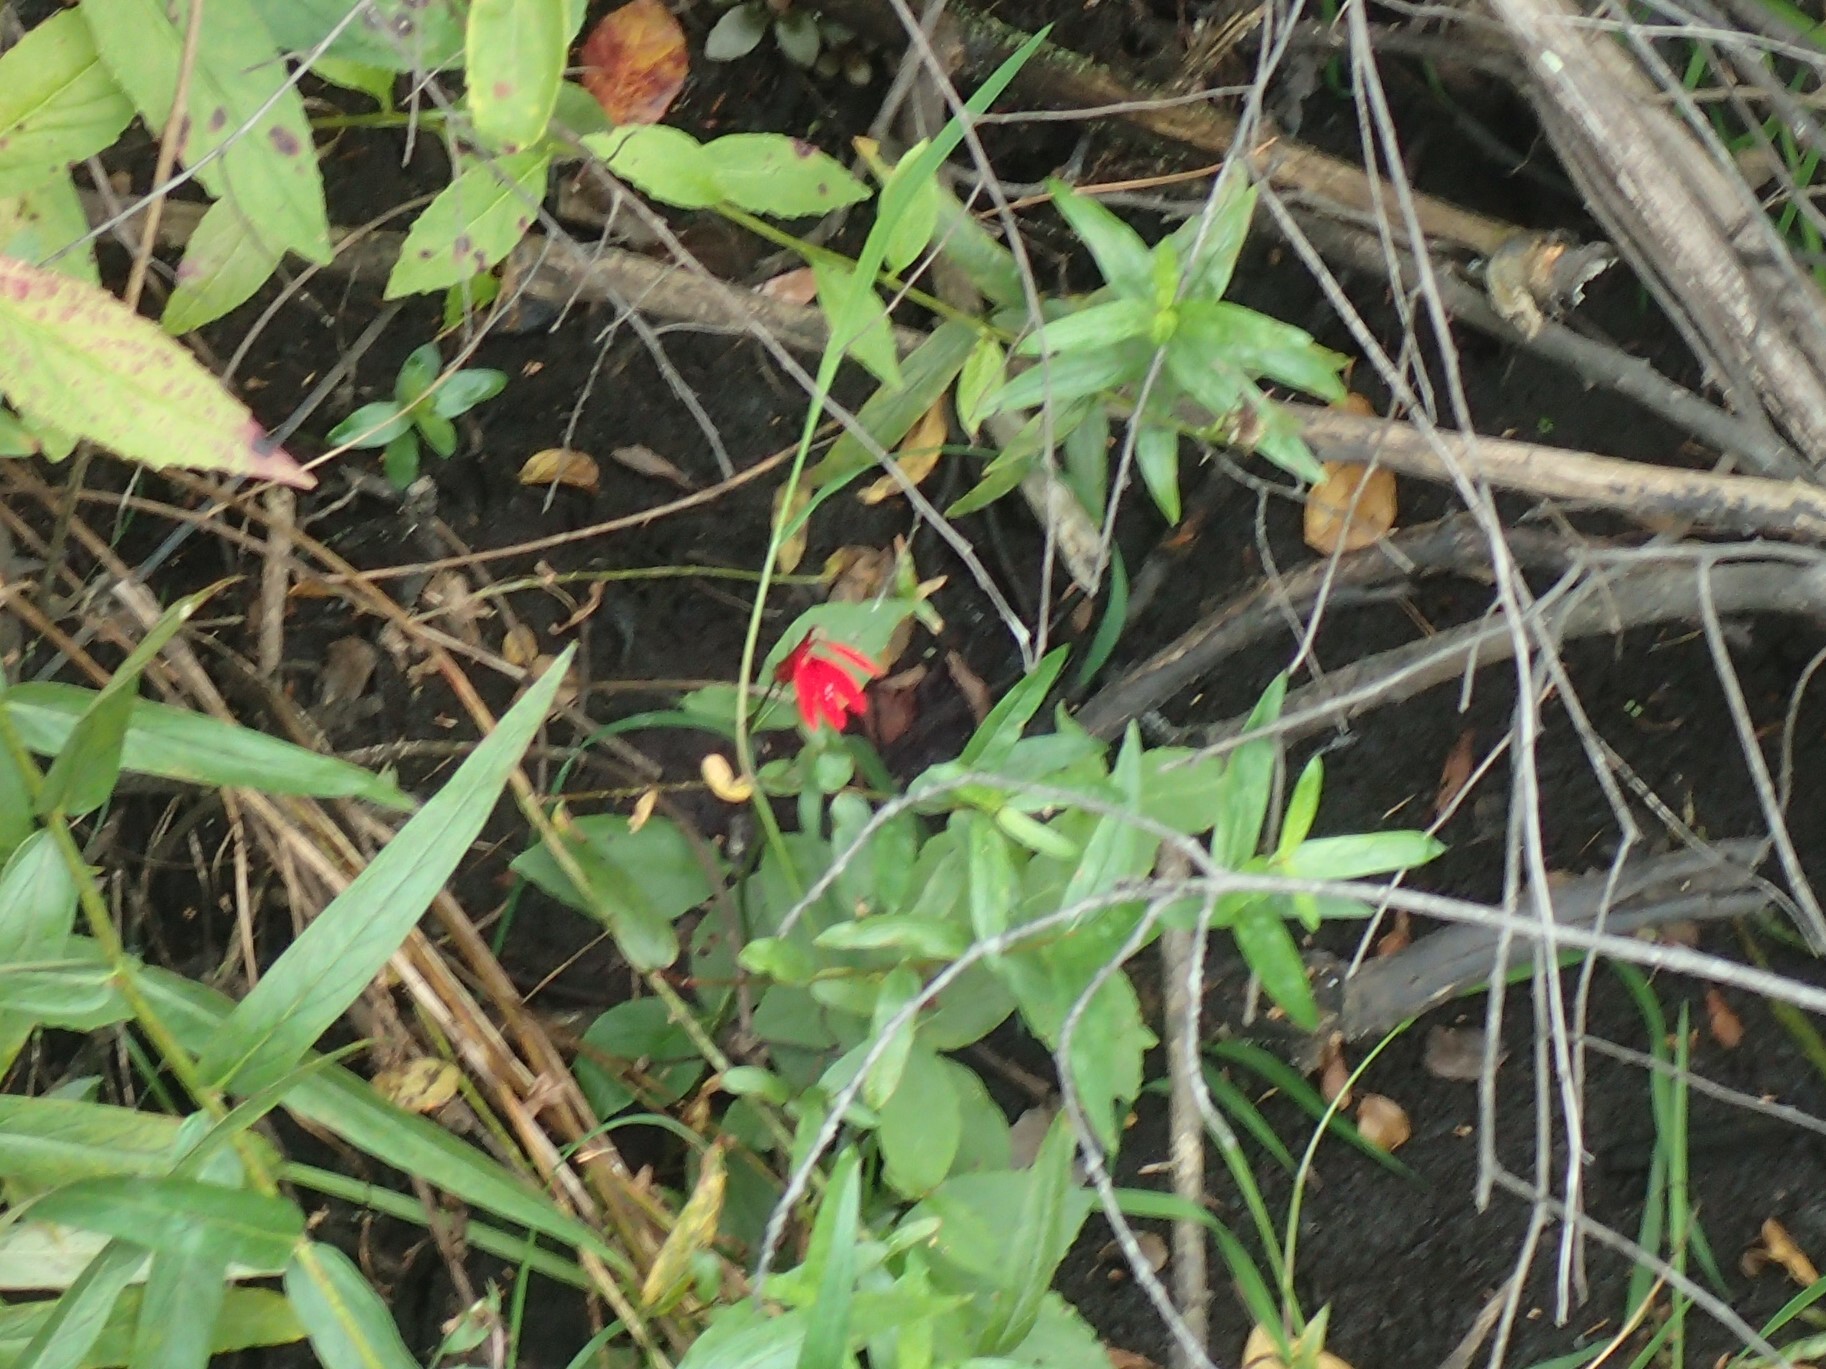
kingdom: Plantae
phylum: Tracheophyta
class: Magnoliopsida
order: Asterales
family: Campanulaceae
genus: Lobelia
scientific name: Lobelia cardinalis
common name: Cardinal flower
